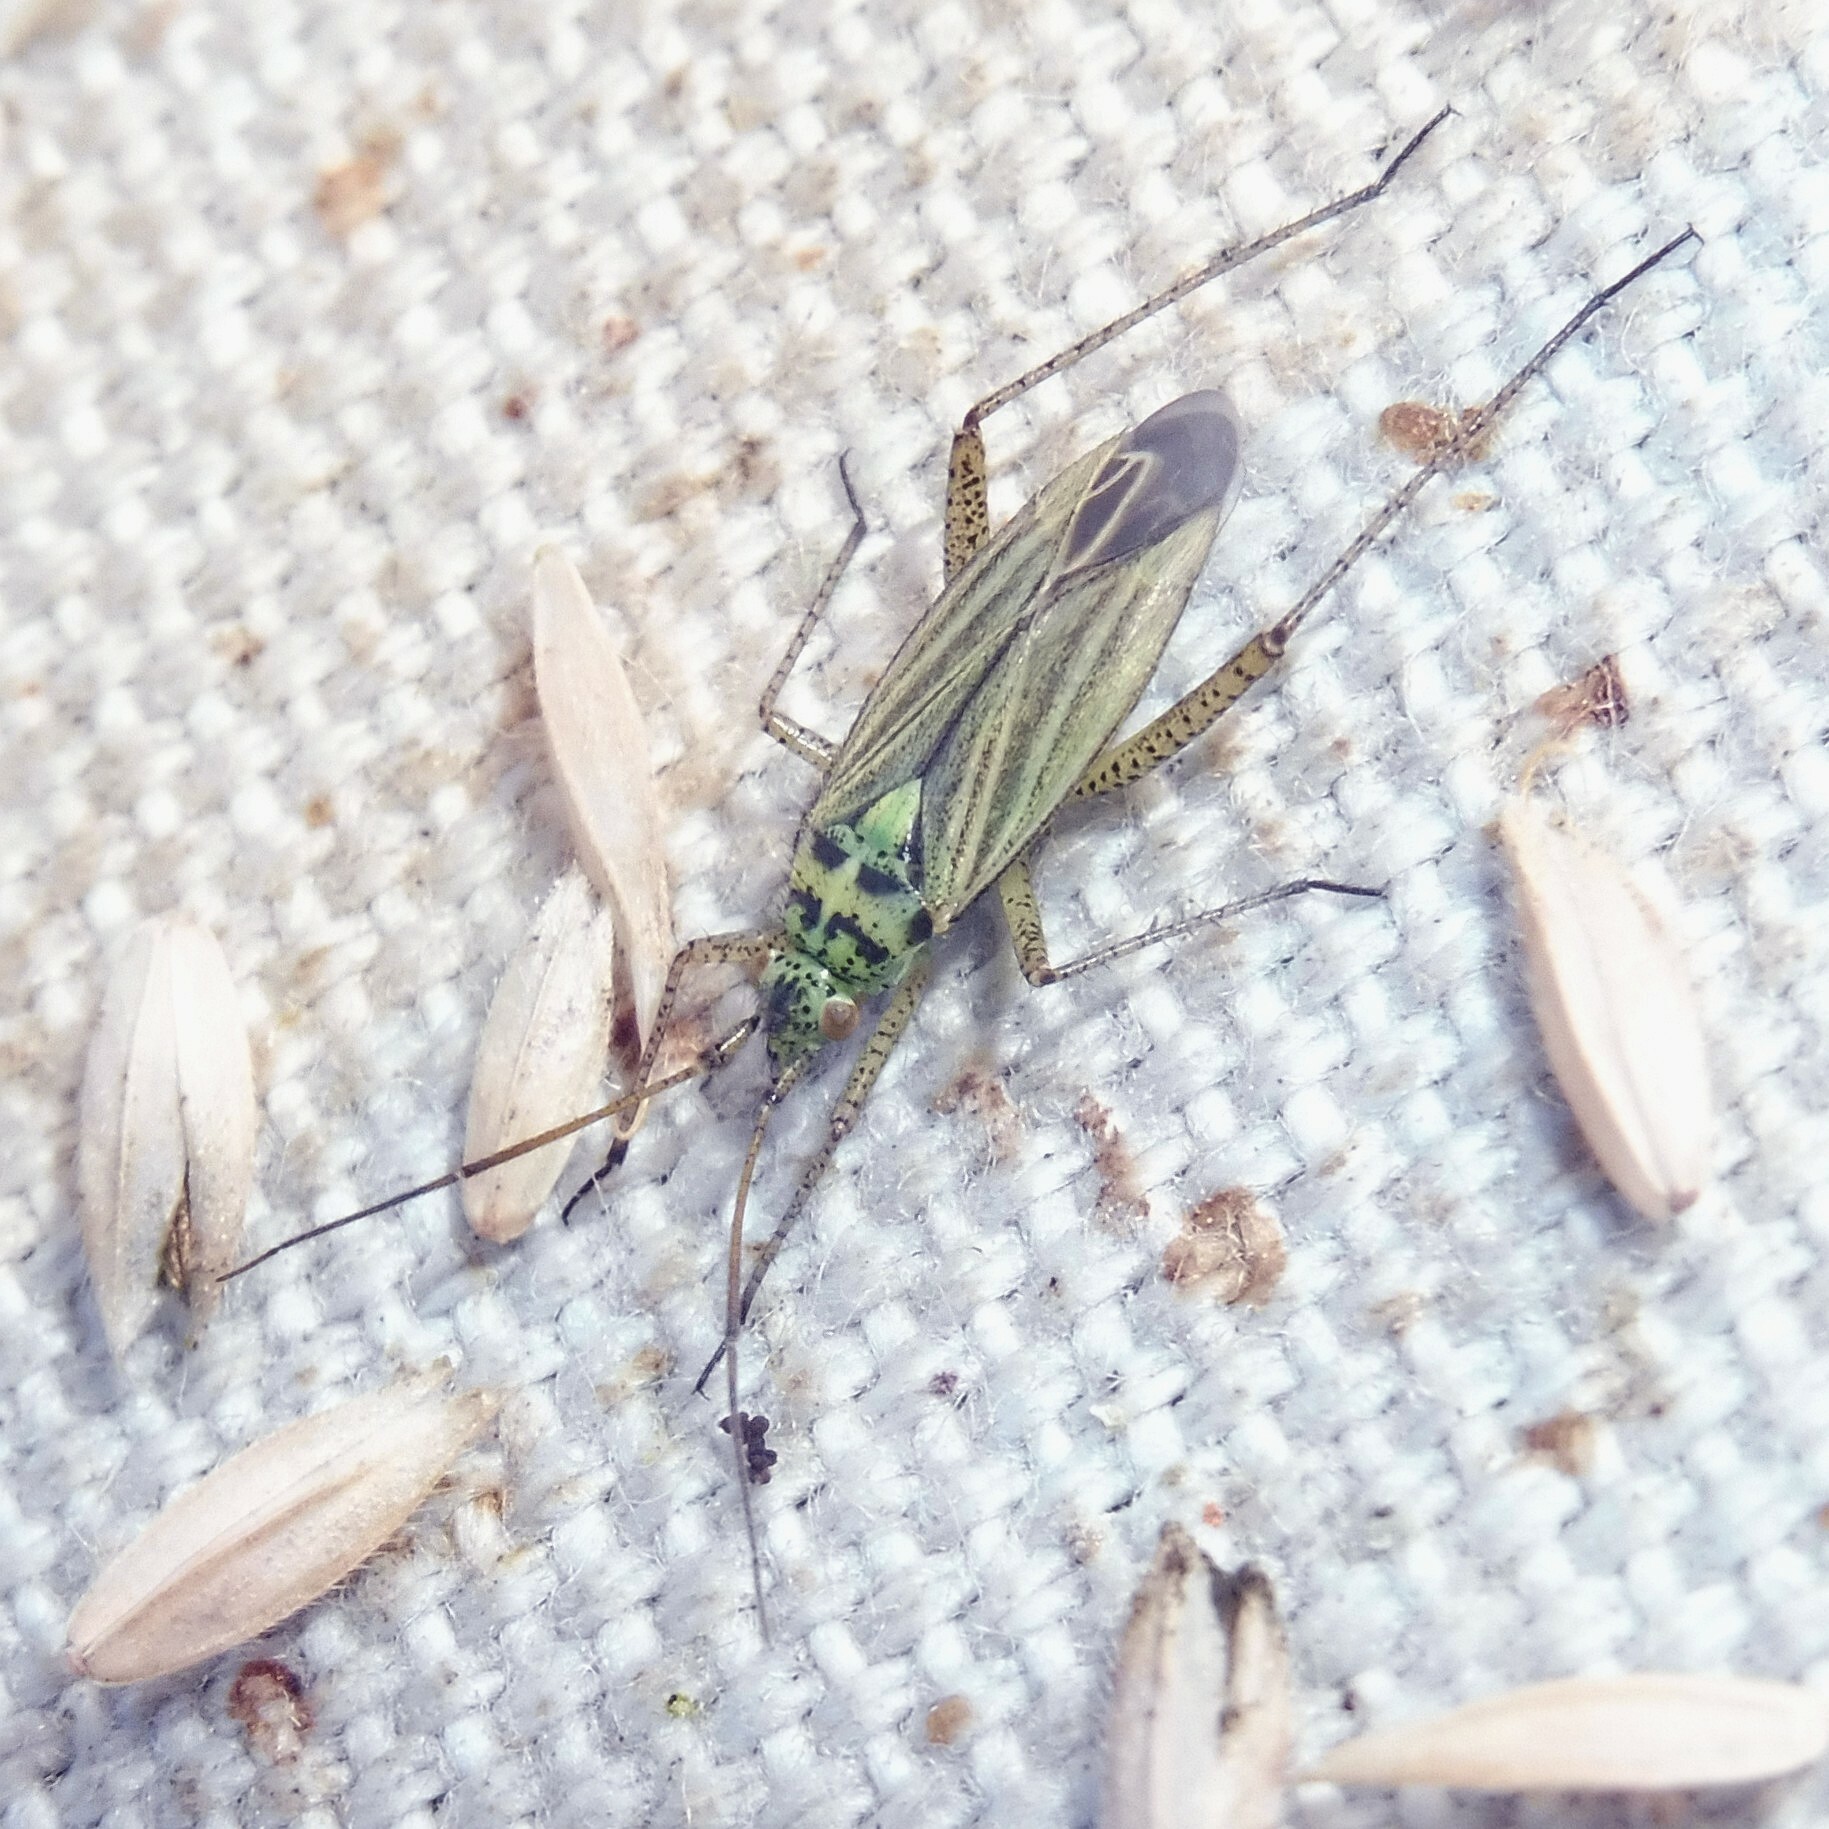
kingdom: Animalia
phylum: Arthropoda
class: Insecta
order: Hemiptera
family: Miridae
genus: Oncotylus
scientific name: Oncotylus viridiflavus
